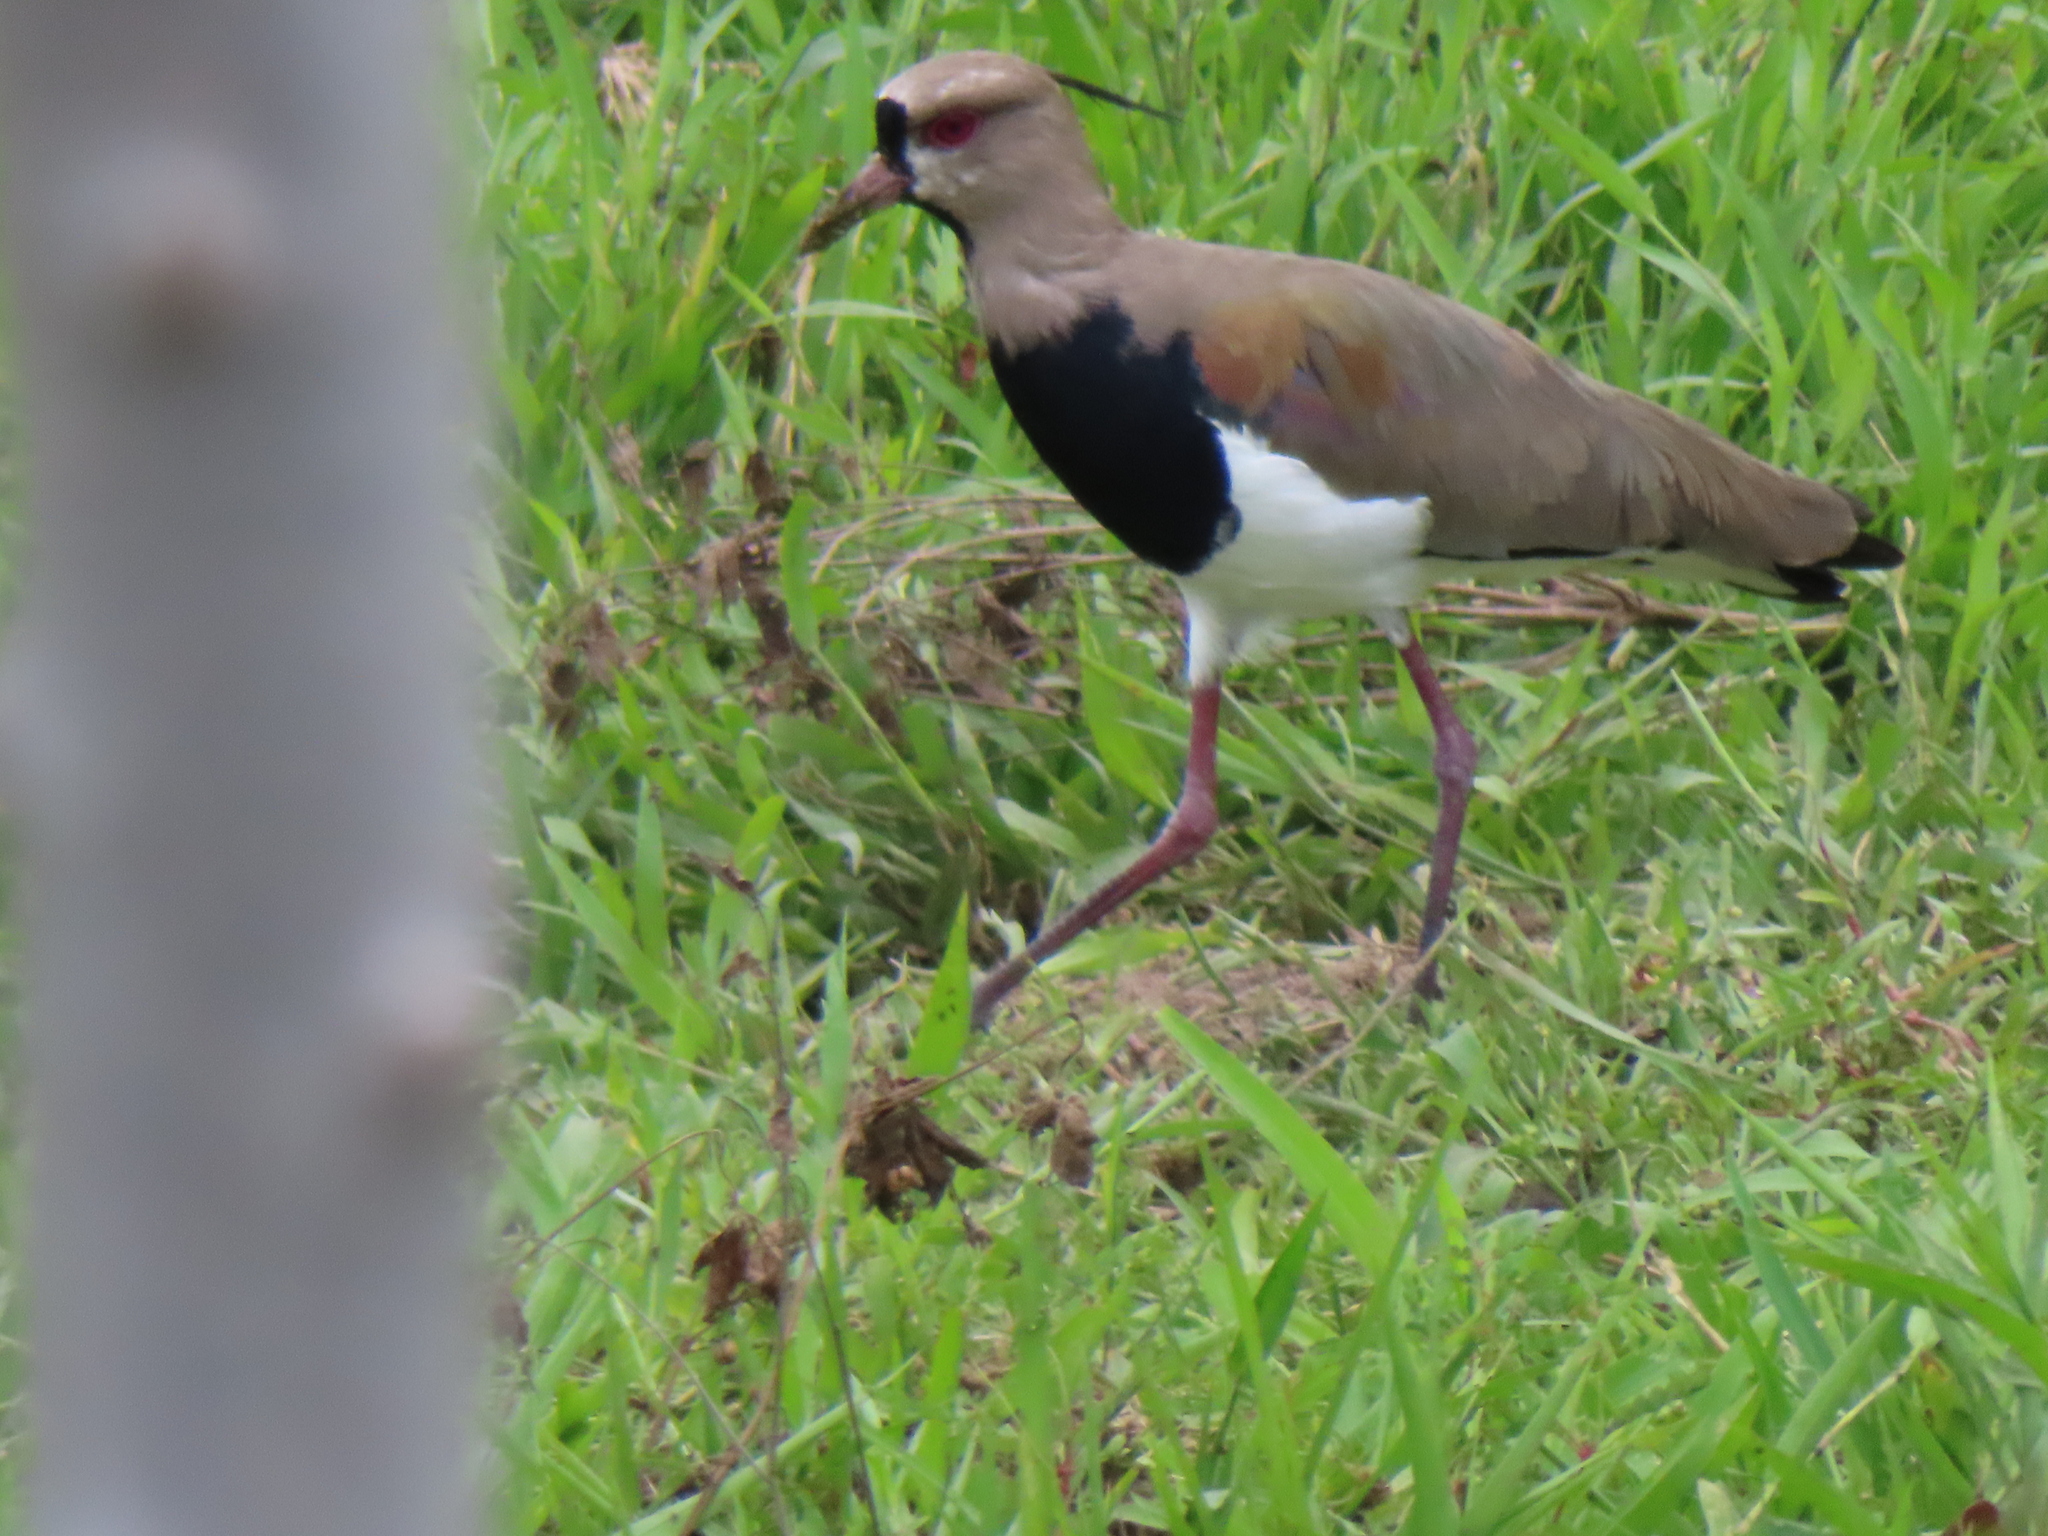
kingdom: Animalia
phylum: Chordata
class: Aves
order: Charadriiformes
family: Charadriidae
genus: Vanellus
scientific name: Vanellus chilensis
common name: Southern lapwing
